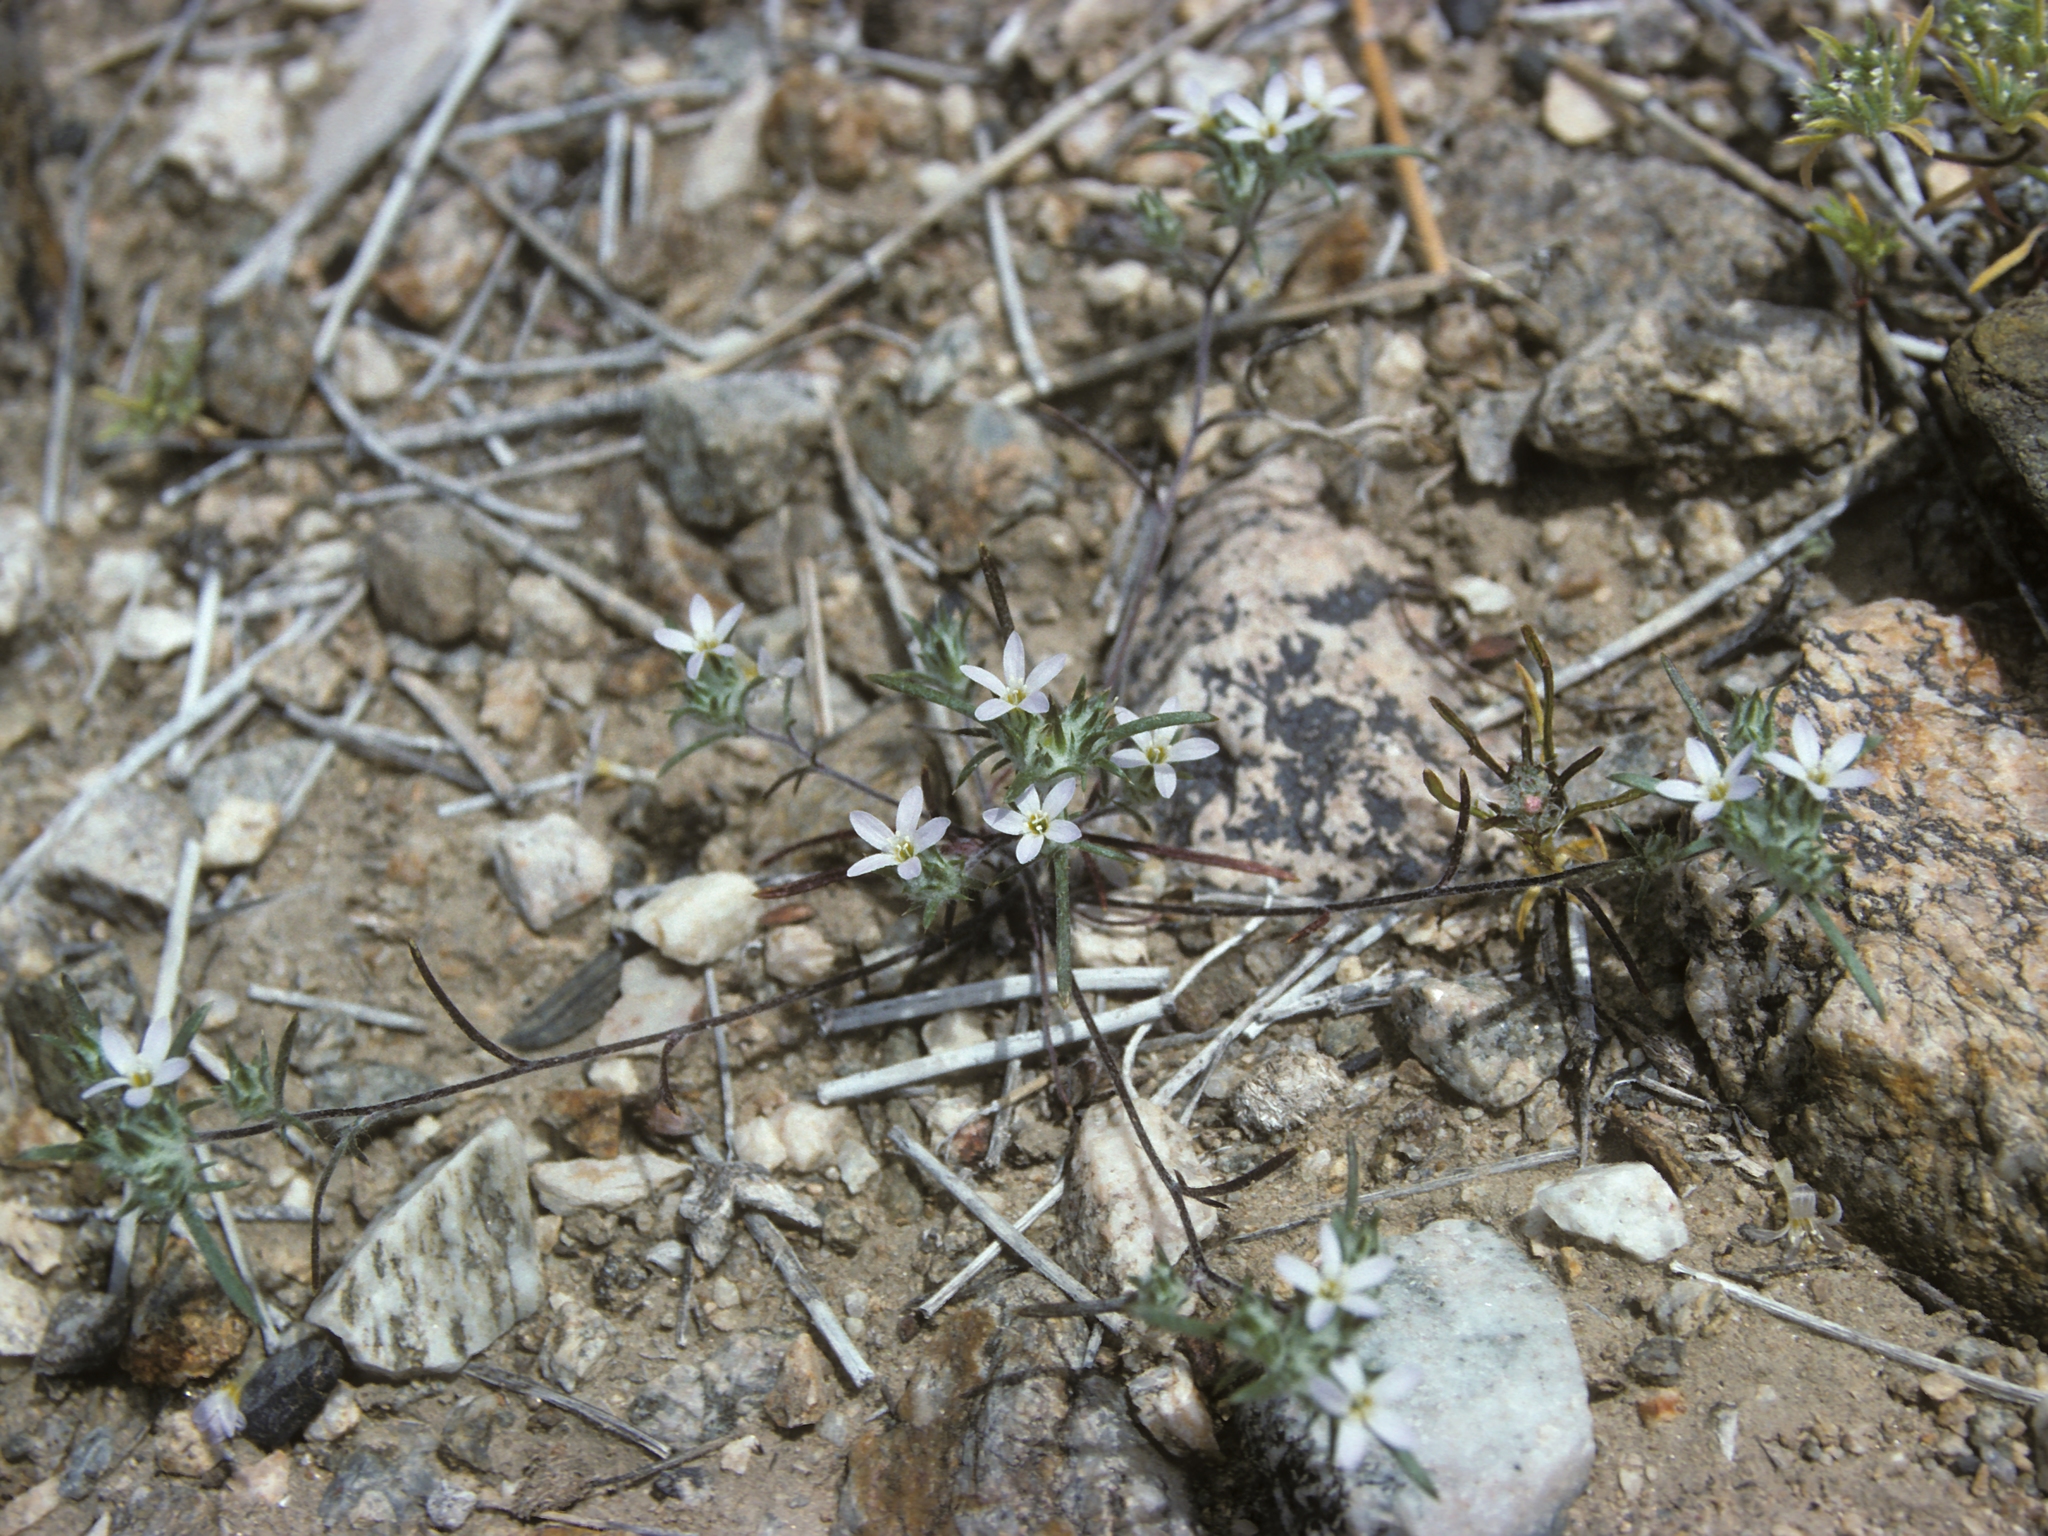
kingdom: Plantae
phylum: Tracheophyta
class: Magnoliopsida
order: Ericales
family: Polemoniaceae
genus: Eriastrum
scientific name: Eriastrum diffusum
